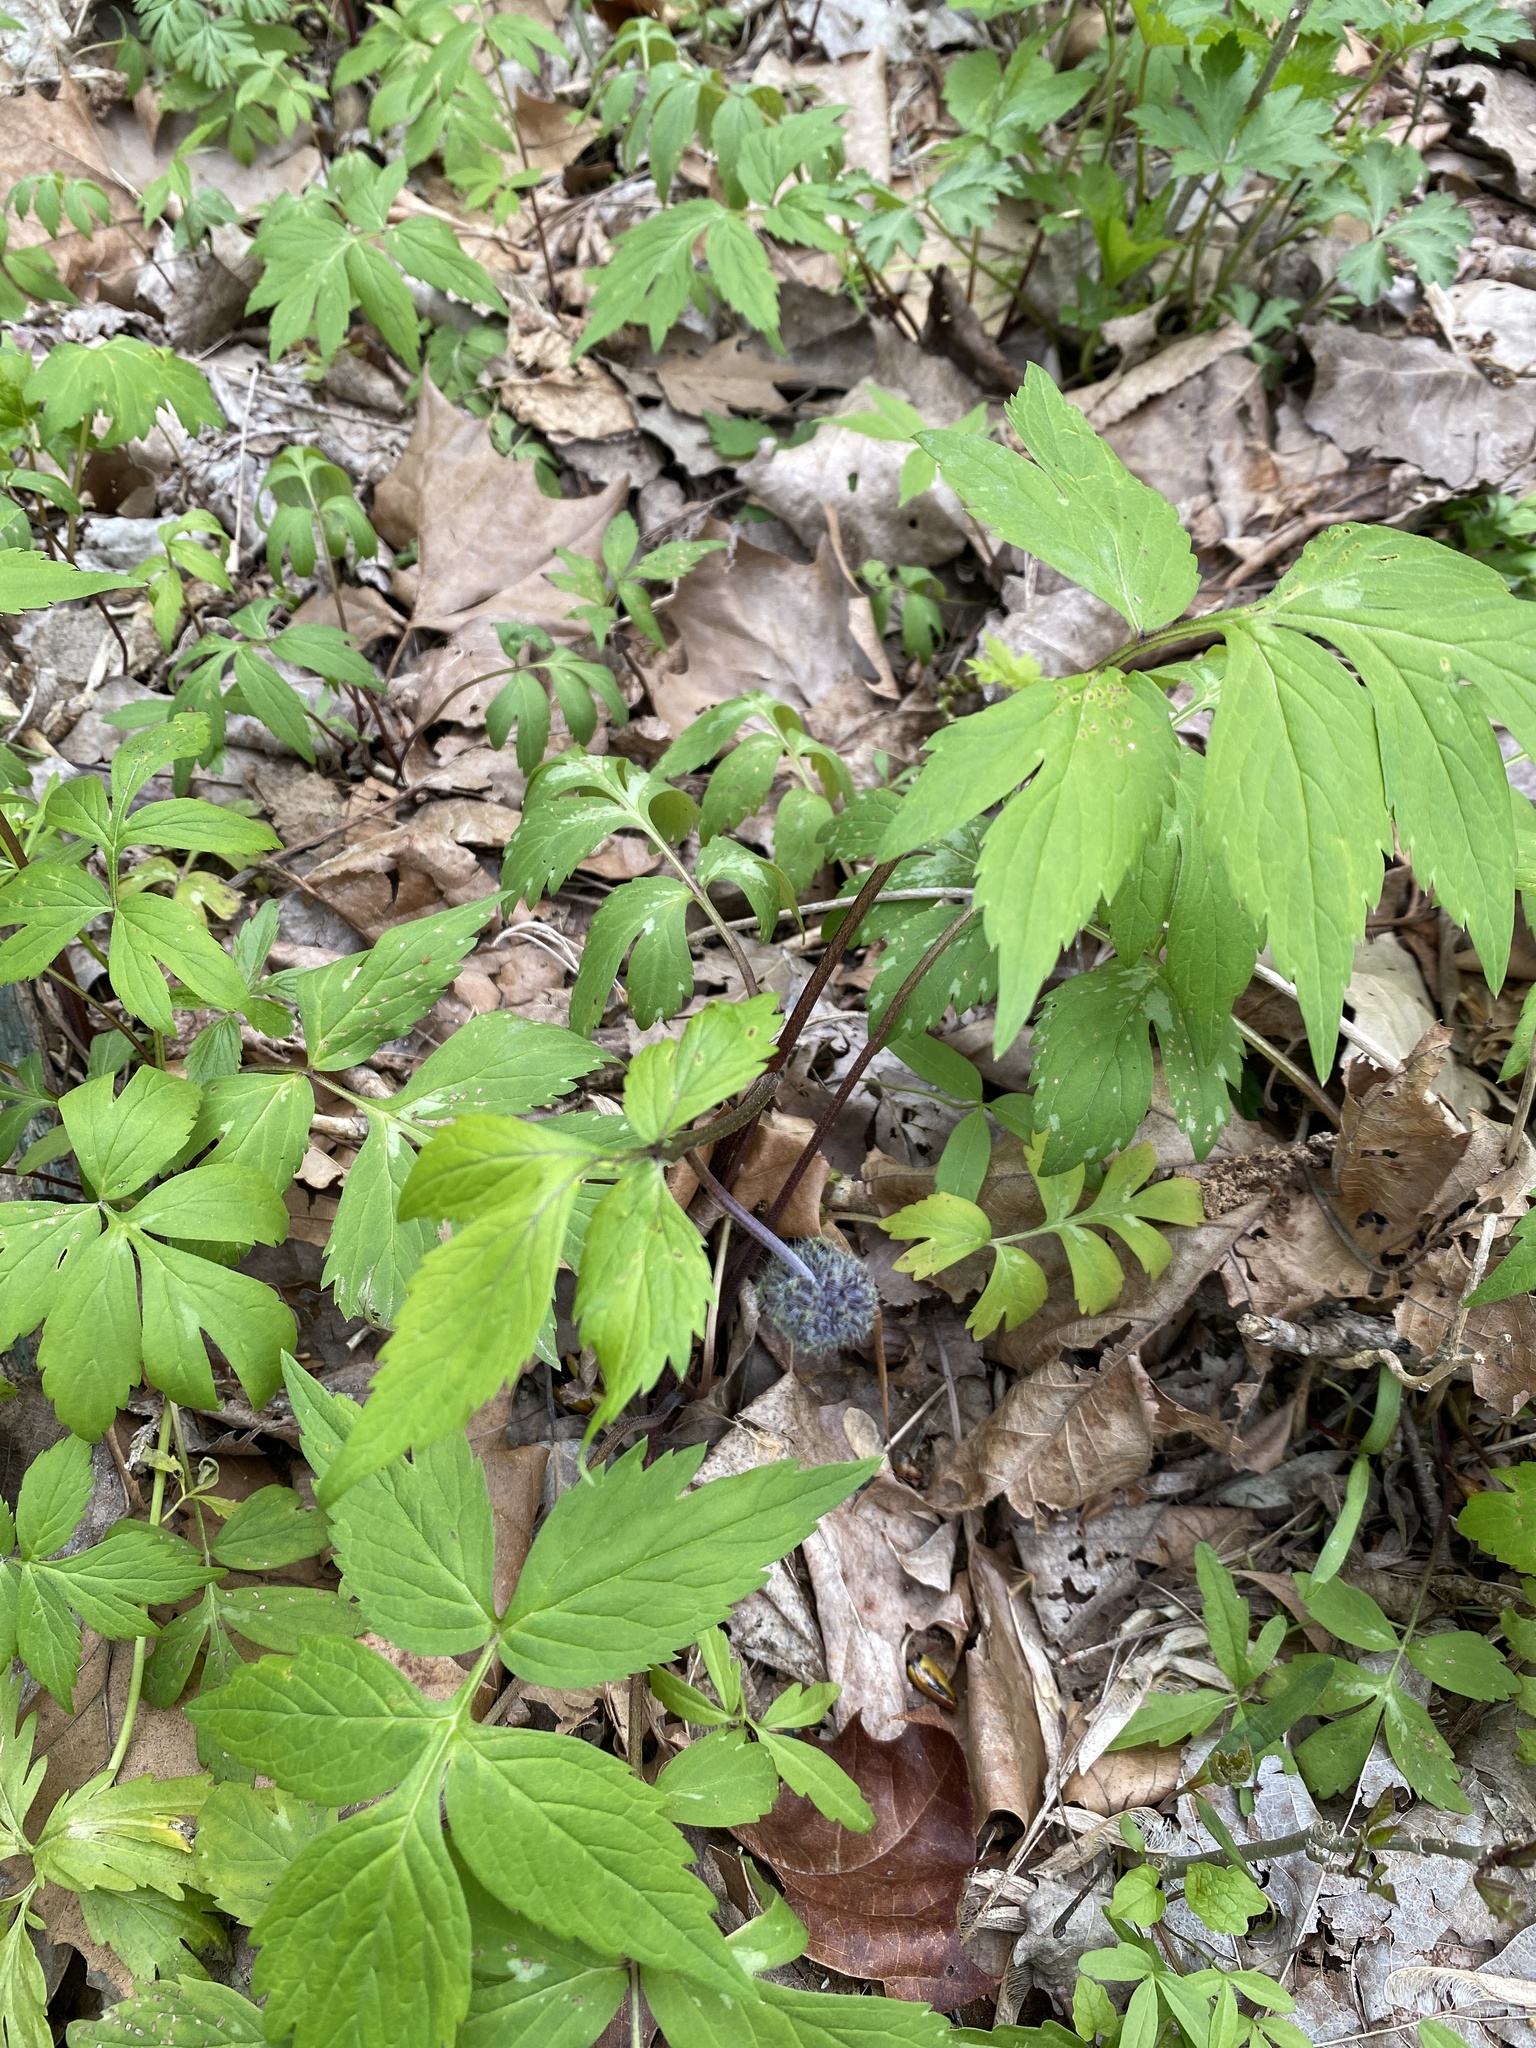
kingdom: Plantae
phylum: Tracheophyta
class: Magnoliopsida
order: Boraginales
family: Hydrophyllaceae
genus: Hydrophyllum
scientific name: Hydrophyllum virginianum
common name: Virginia waterleaf
